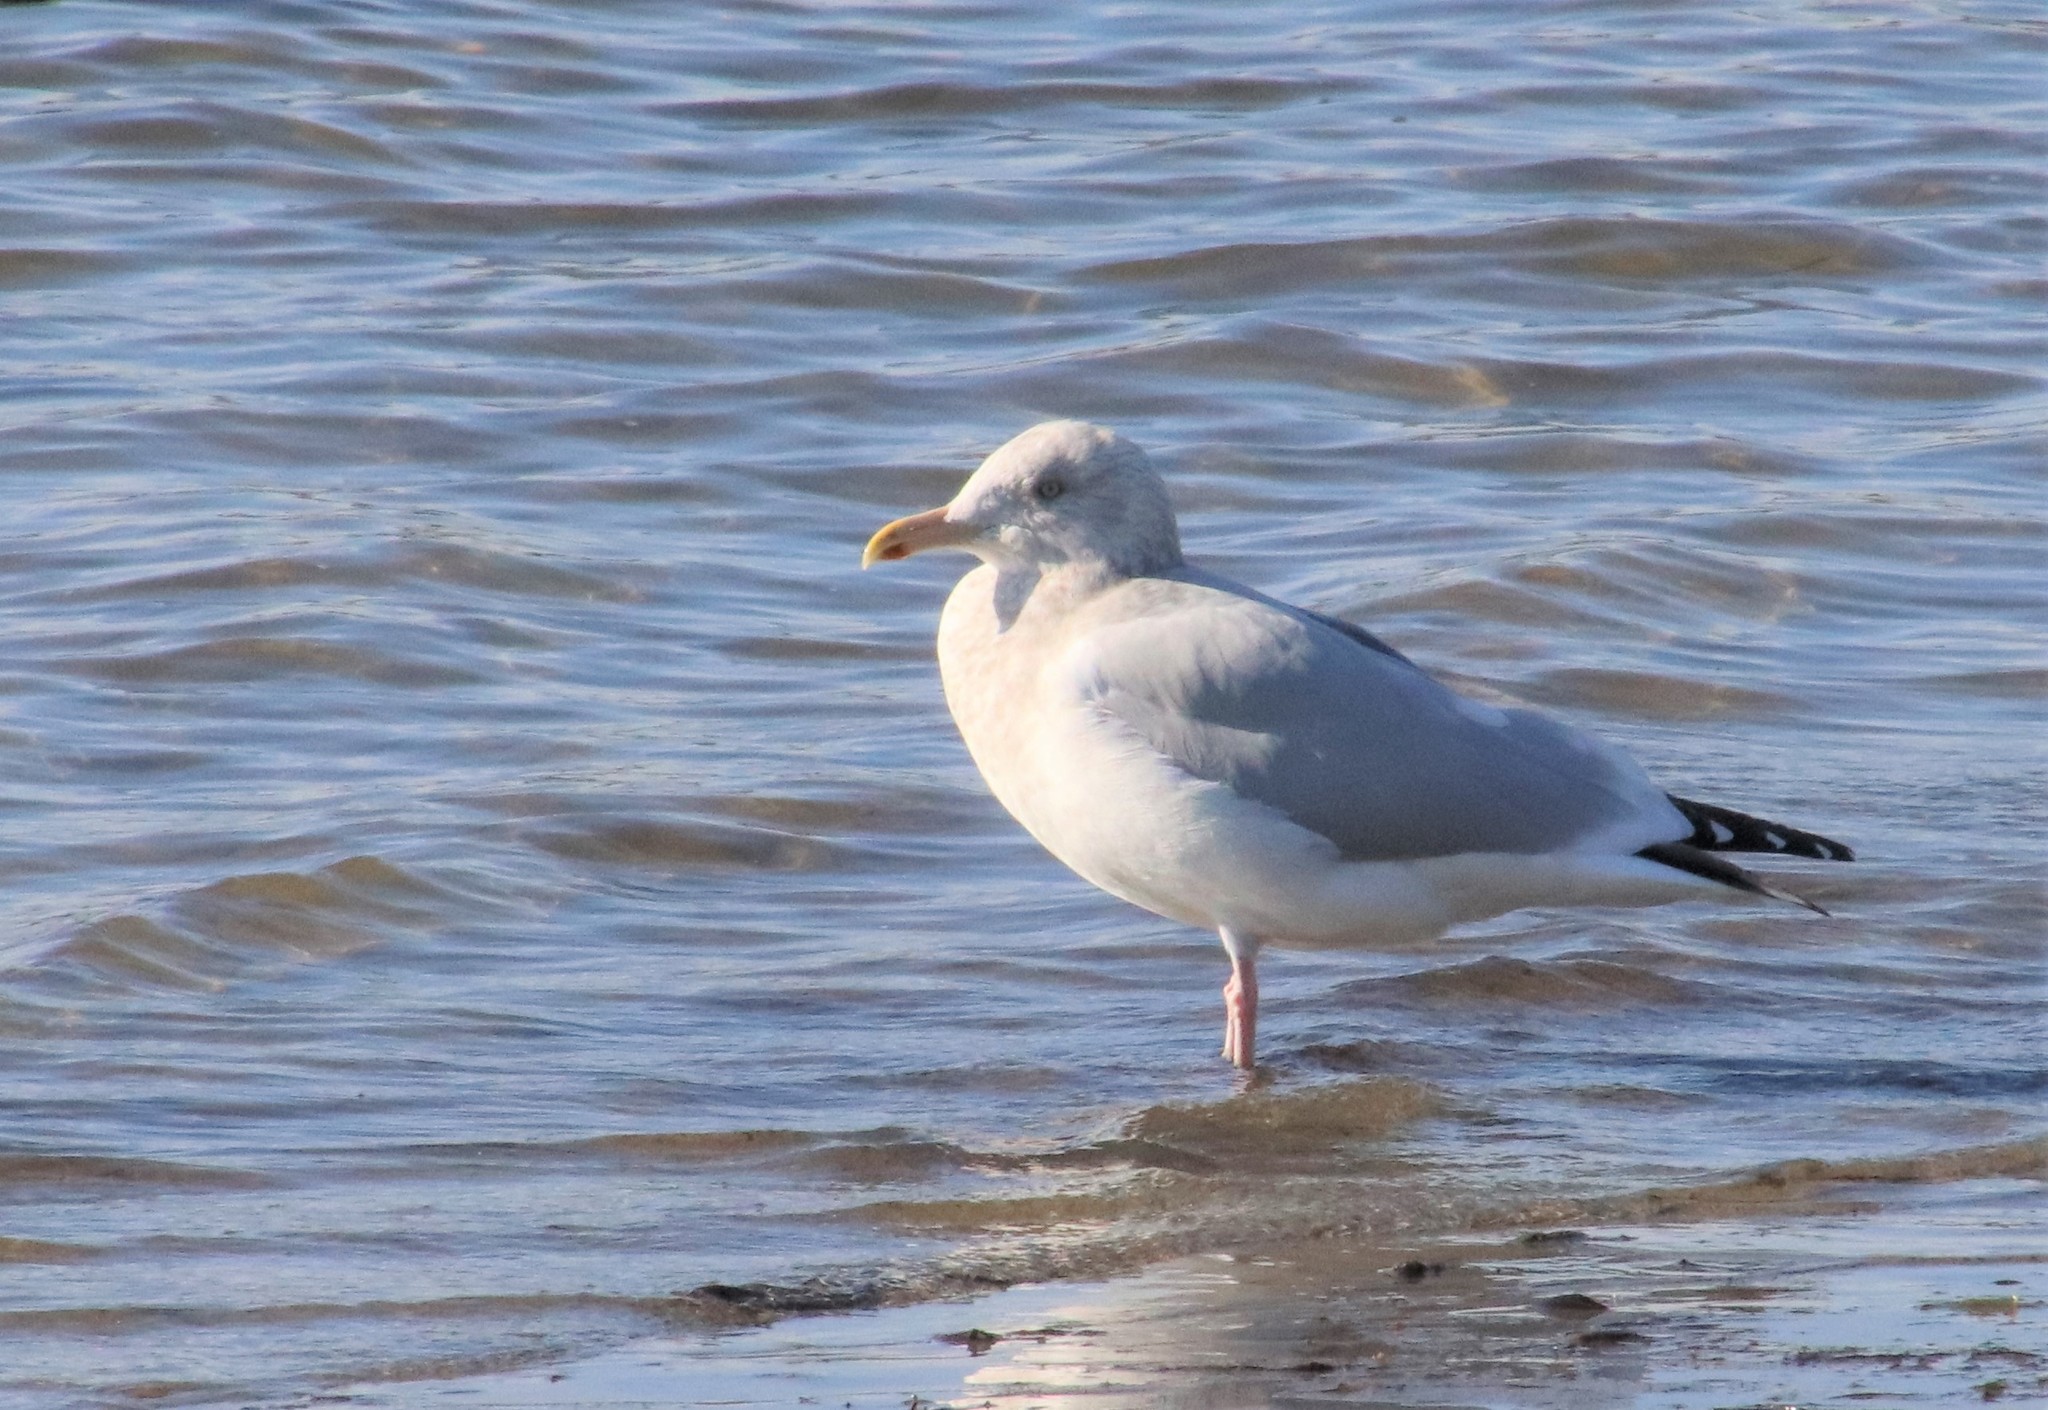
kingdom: Animalia
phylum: Chordata
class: Aves
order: Charadriiformes
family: Laridae
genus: Larus
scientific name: Larus argentatus
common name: Herring gull
